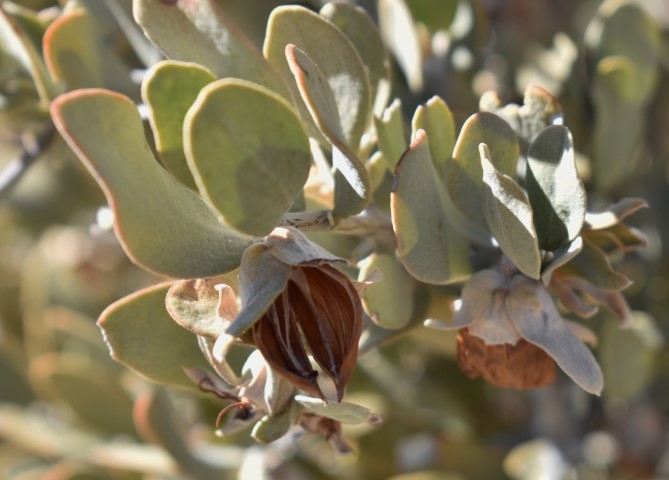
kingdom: Plantae
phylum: Tracheophyta
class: Magnoliopsida
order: Caryophyllales
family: Simmondsiaceae
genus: Simmondsia
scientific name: Simmondsia chinensis
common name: Jojoba
